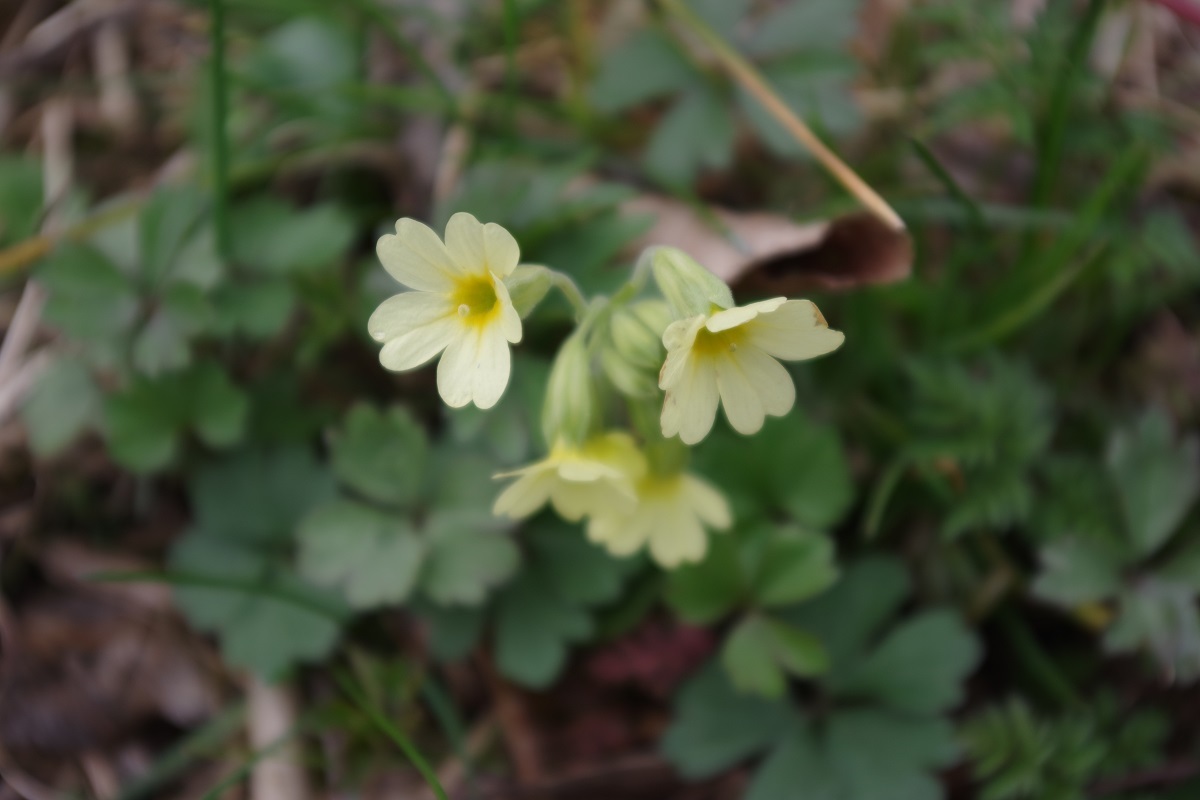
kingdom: Plantae
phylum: Tracheophyta
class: Magnoliopsida
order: Ericales
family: Primulaceae
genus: Primula
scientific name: Primula elatior
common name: Oxlip
